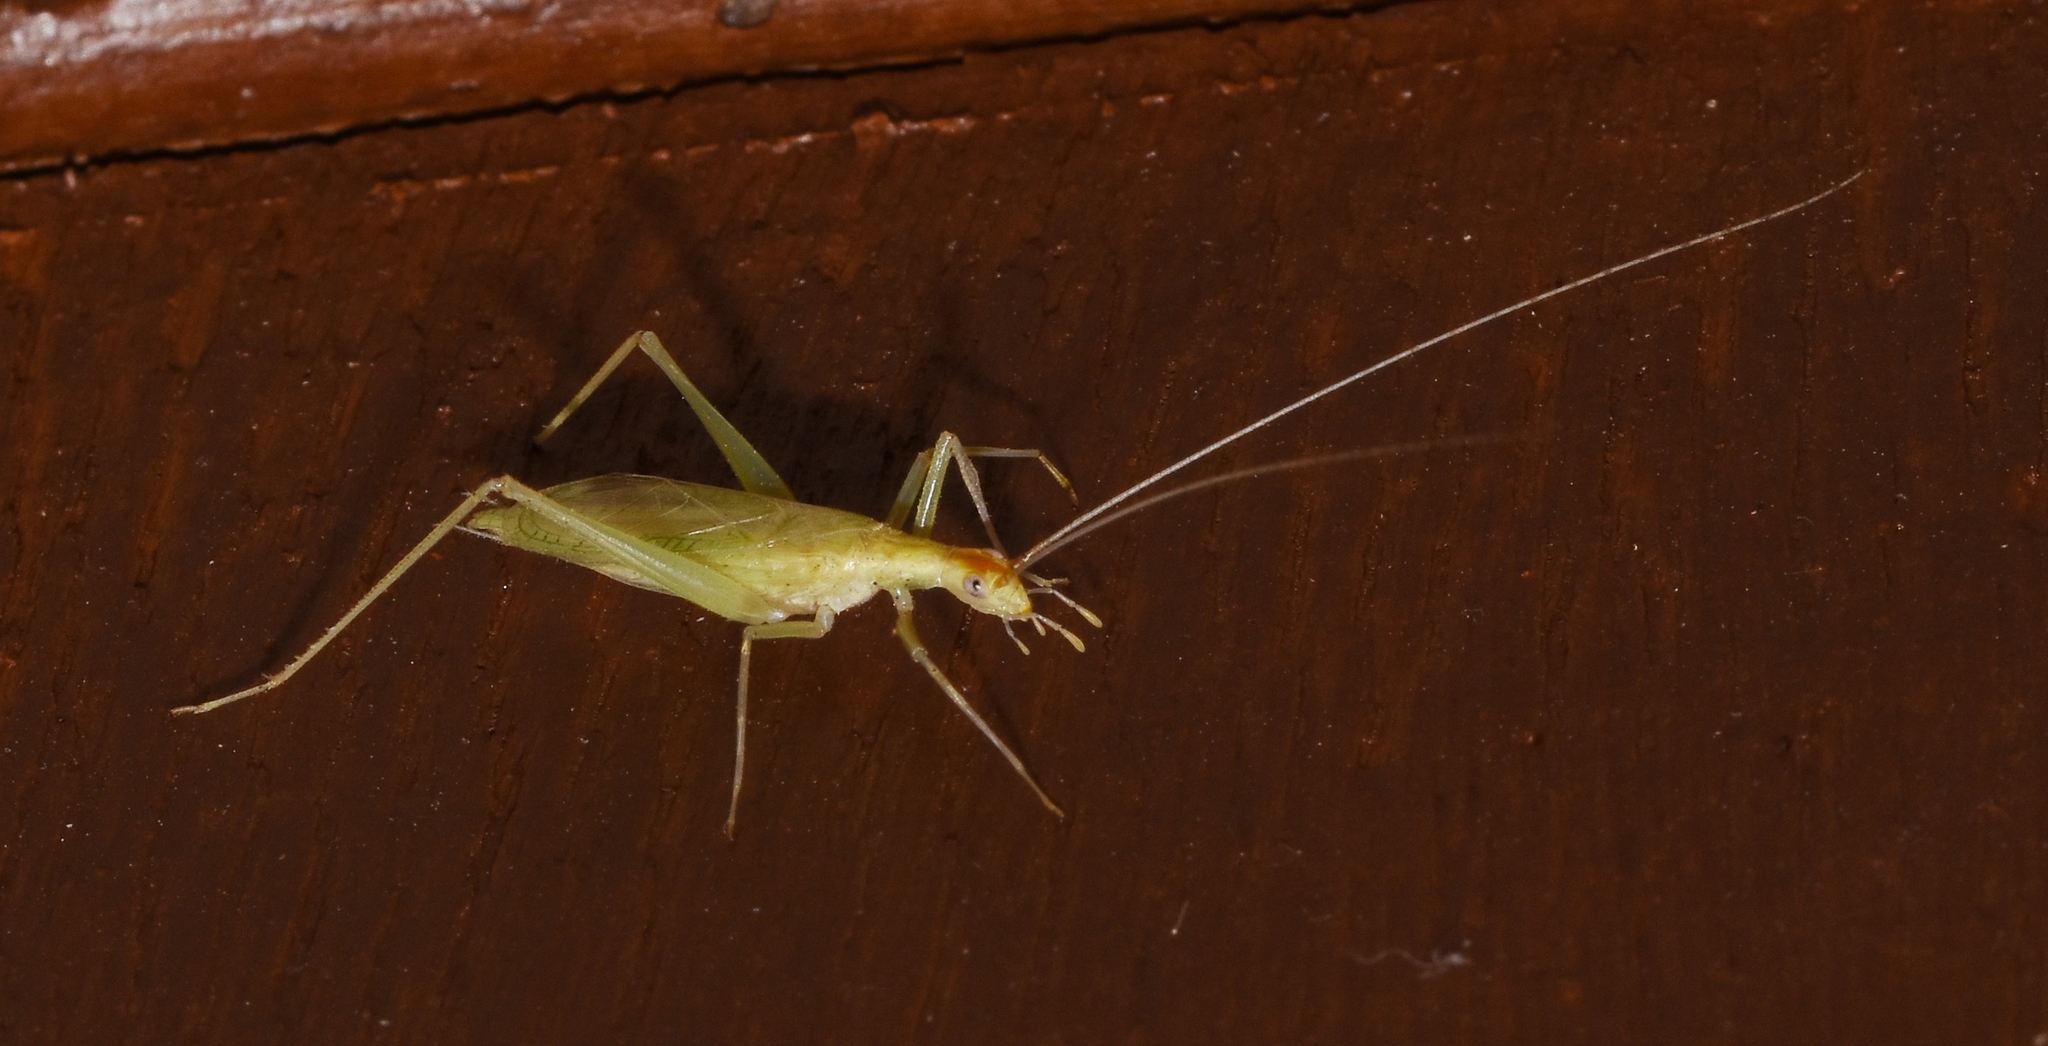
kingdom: Animalia
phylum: Arthropoda
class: Insecta
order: Orthoptera
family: Gryllidae
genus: Oecanthus
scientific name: Oecanthus niveus
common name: Narrow-winged tree cricket
